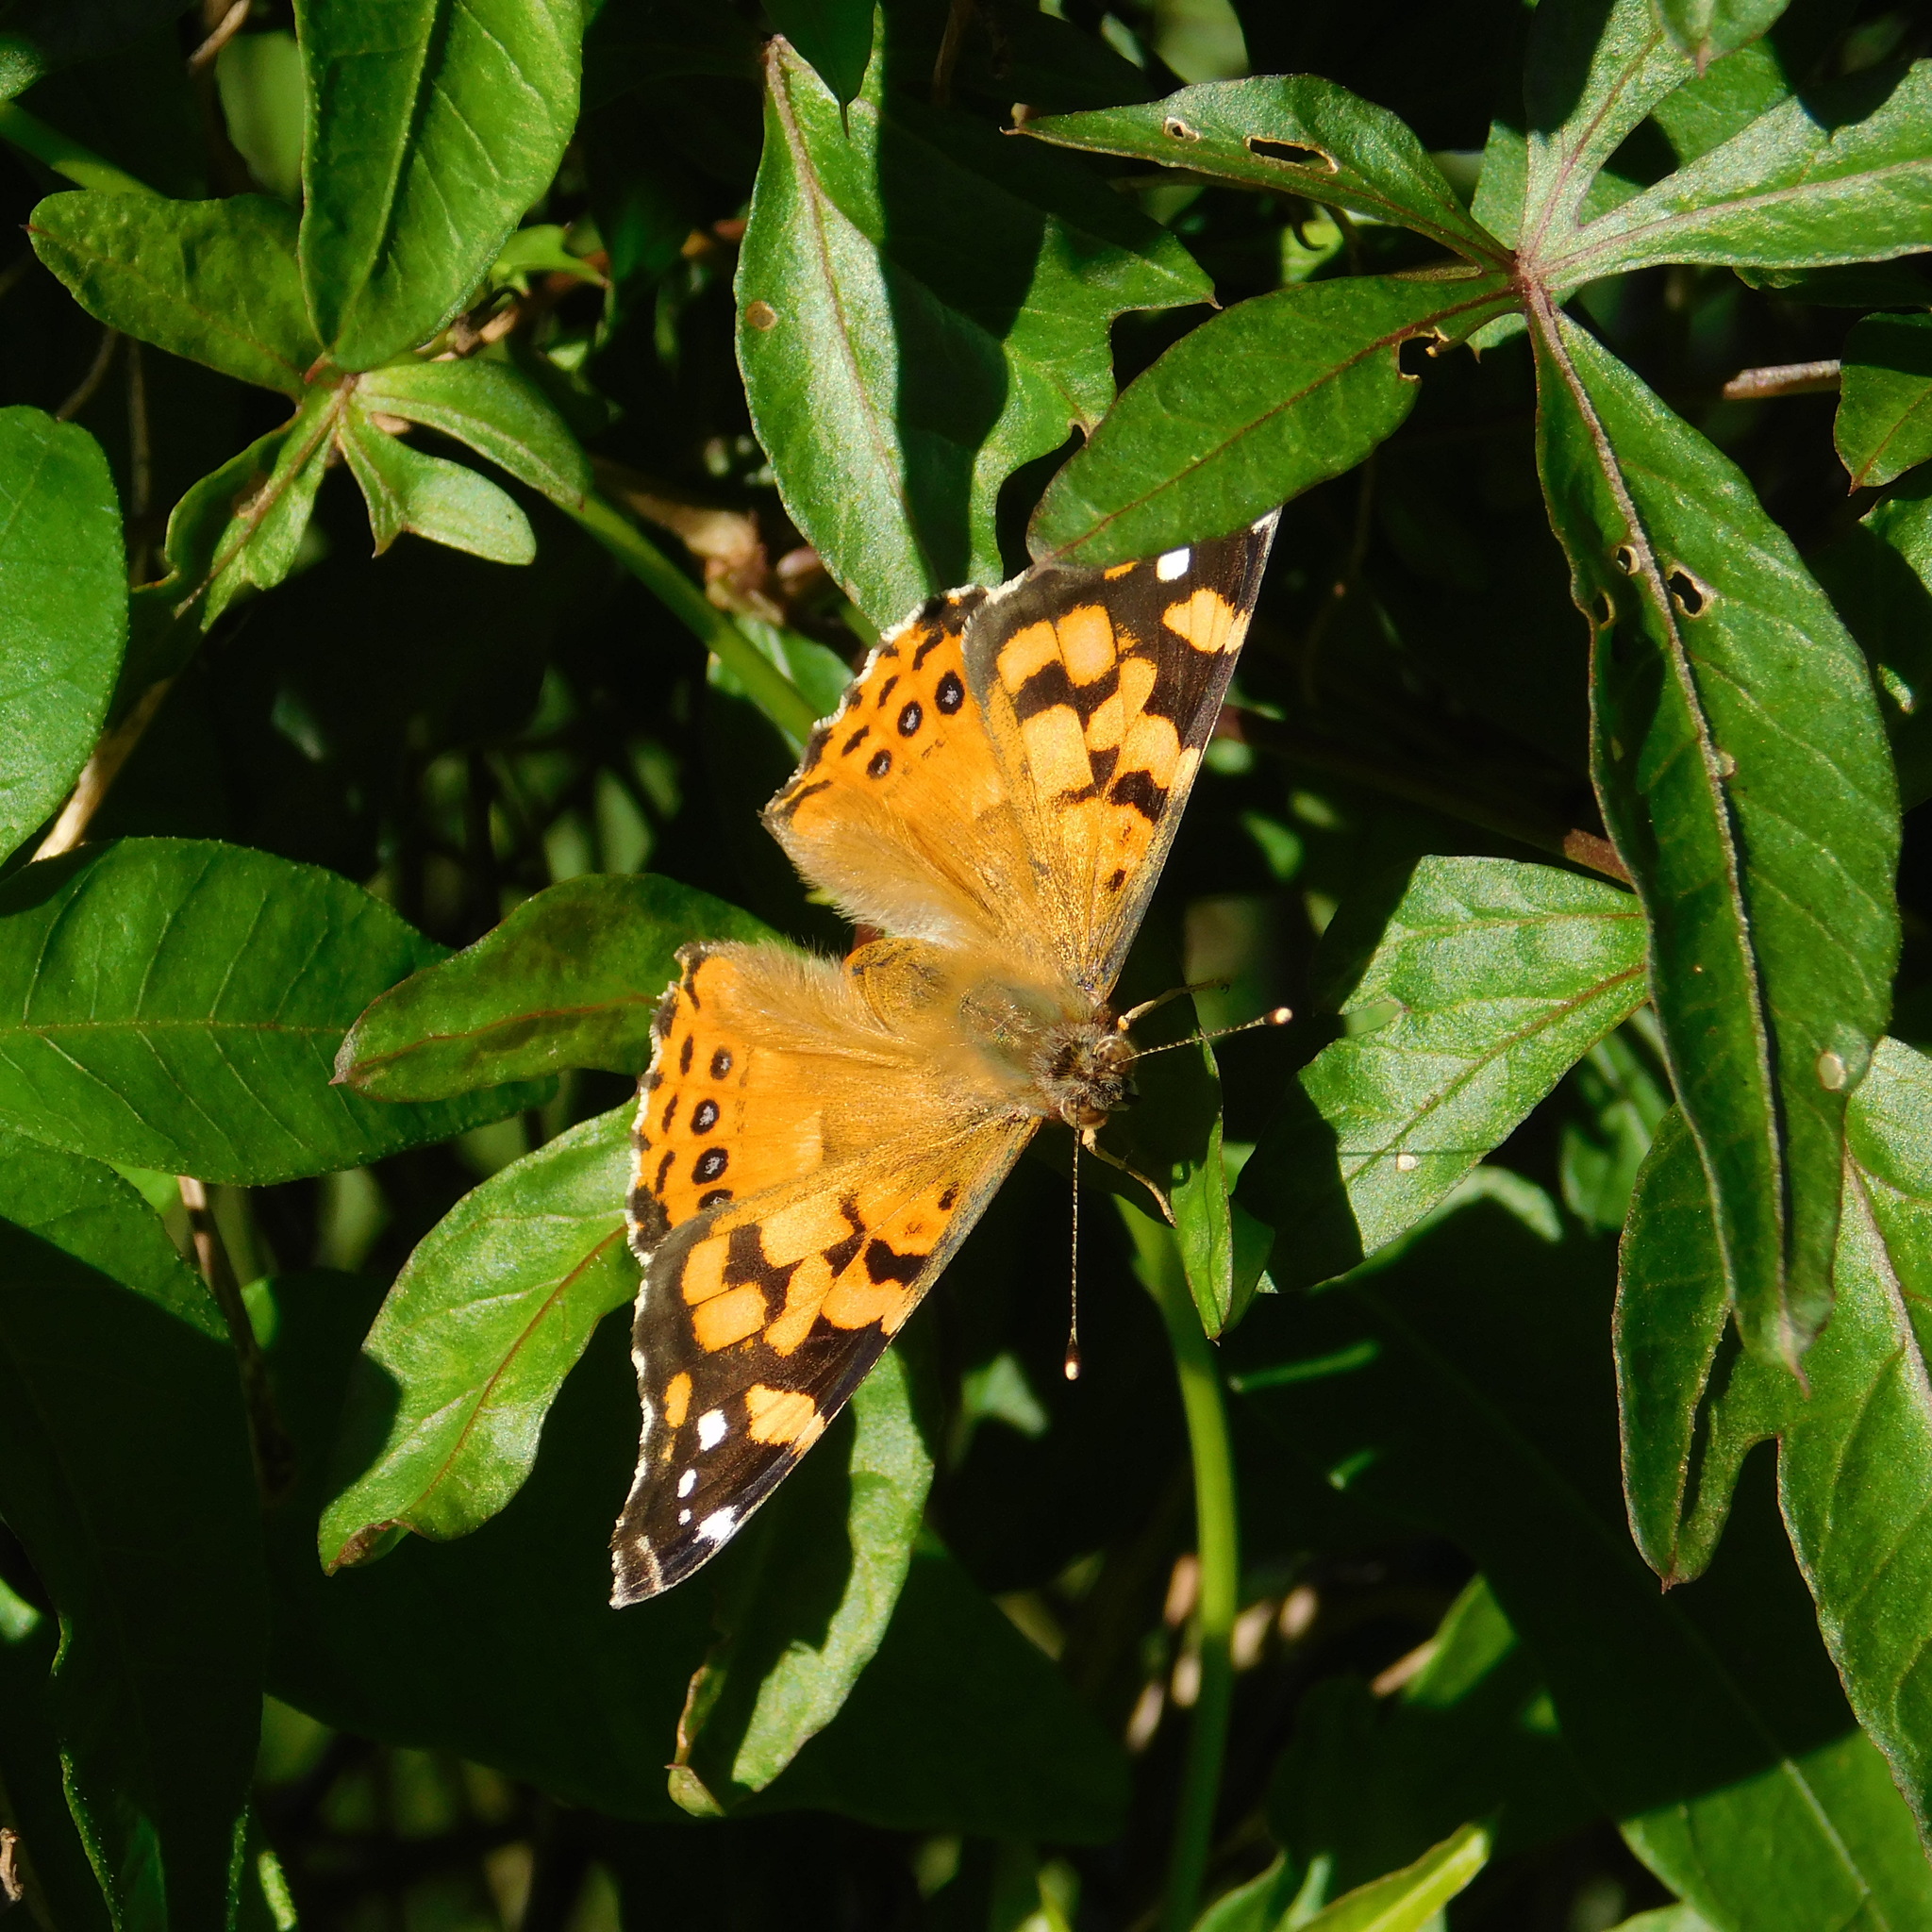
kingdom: Animalia
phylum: Arthropoda
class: Insecta
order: Lepidoptera
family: Nymphalidae
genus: Vanessa
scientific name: Vanessa carye
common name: Subtropical lady
